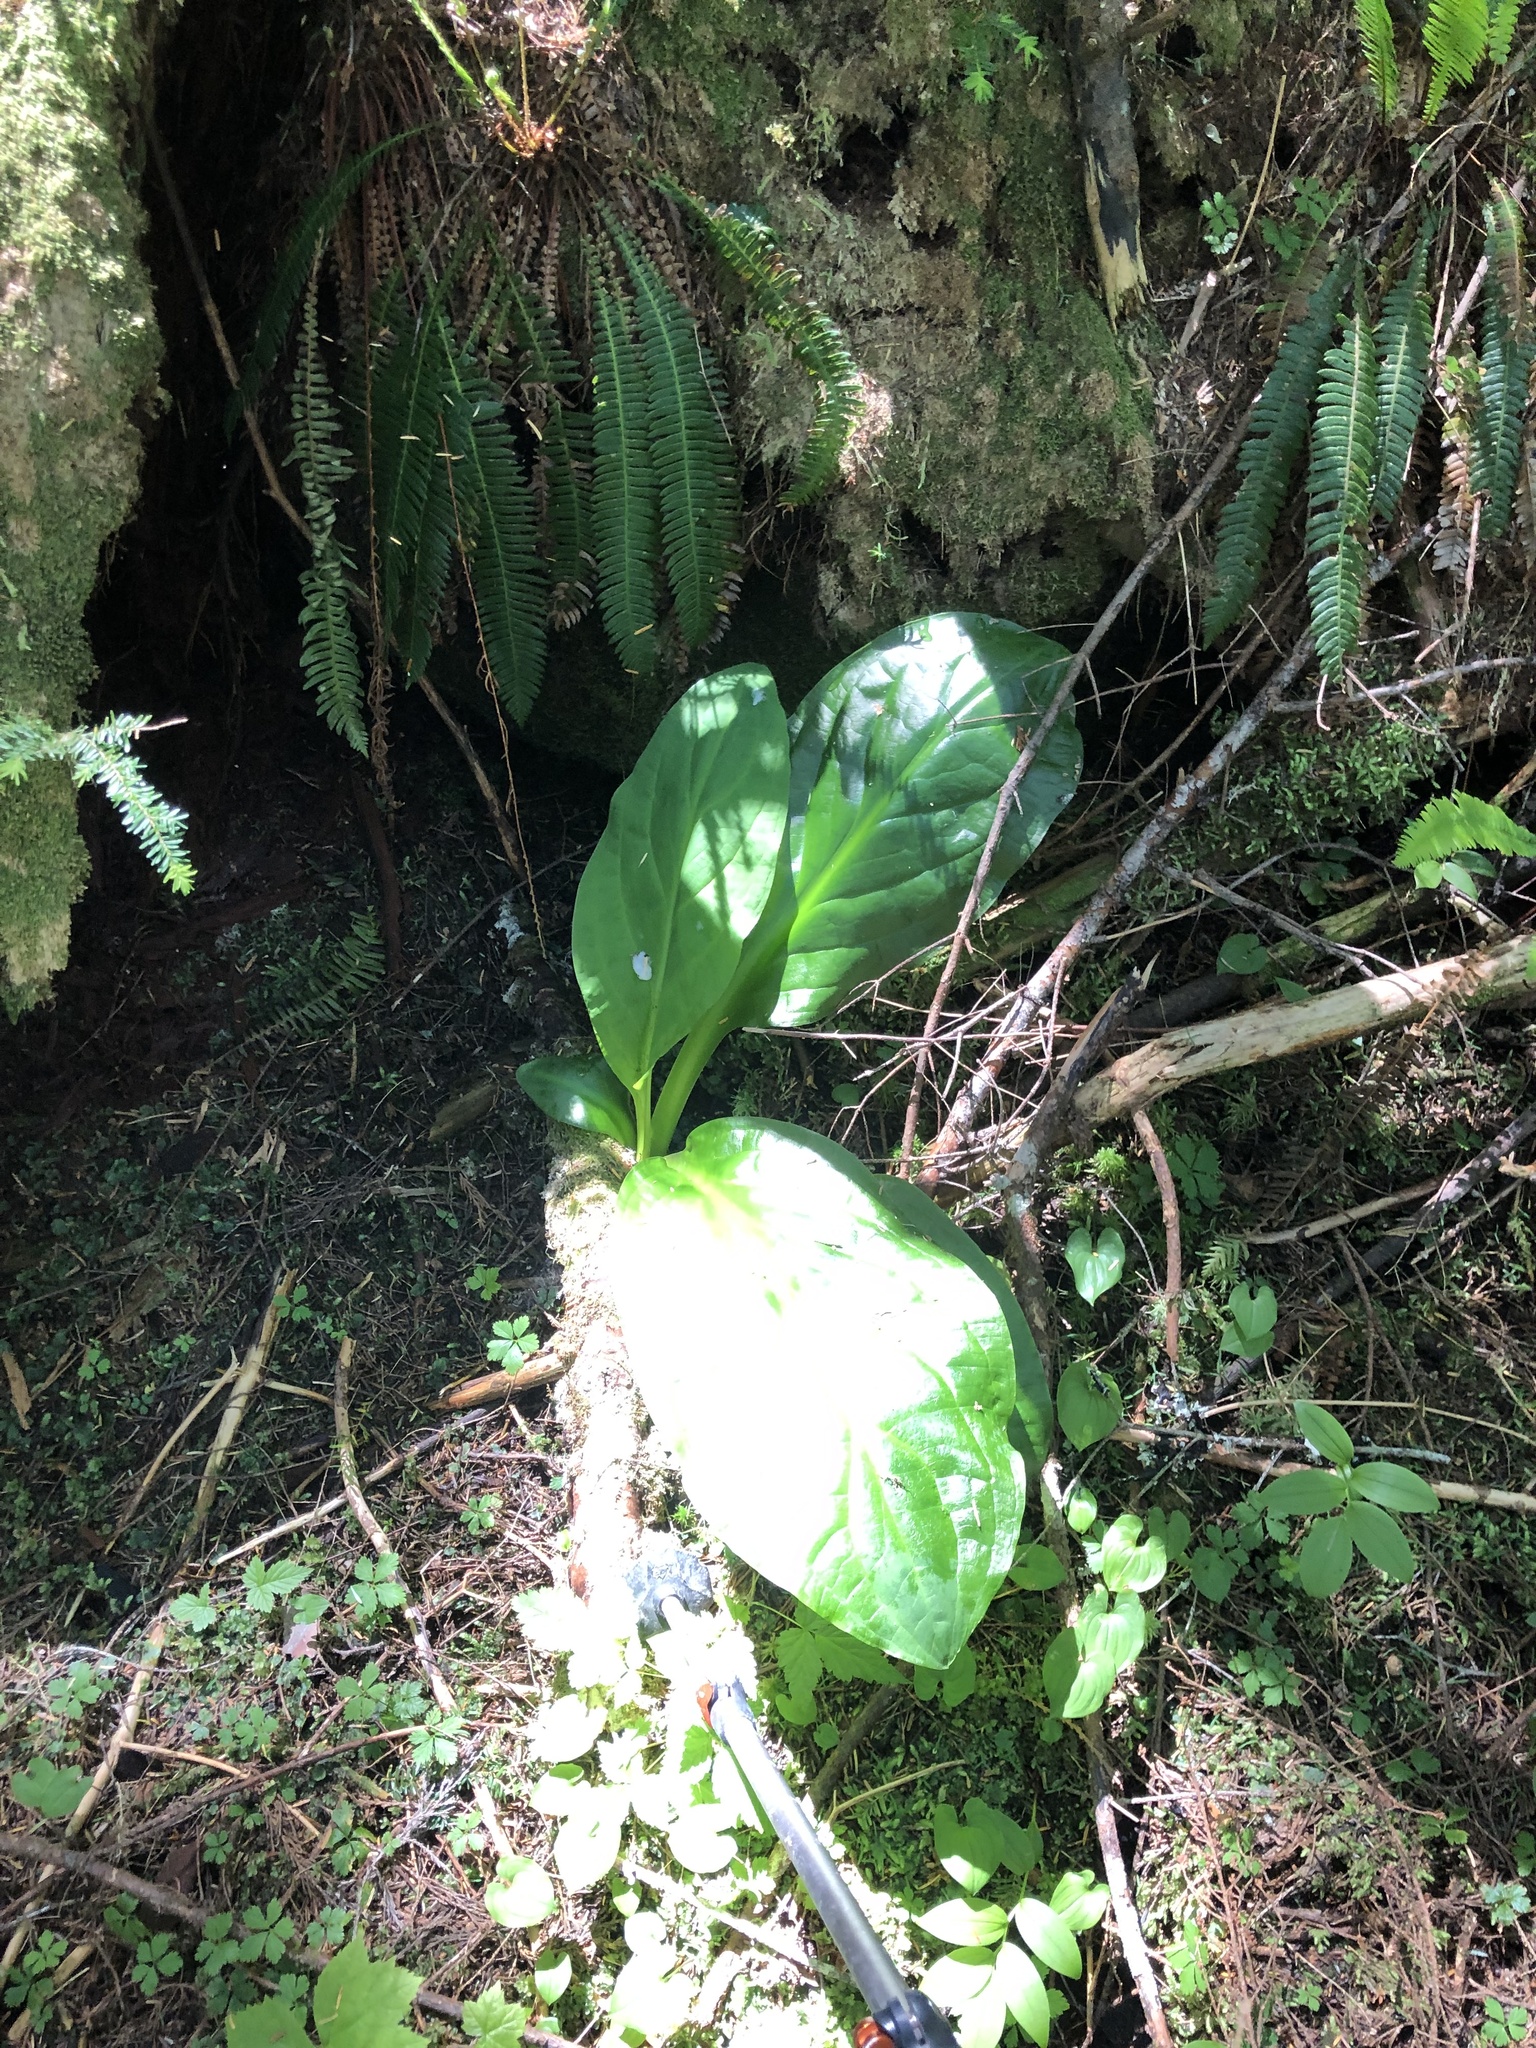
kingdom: Plantae
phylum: Tracheophyta
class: Liliopsida
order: Alismatales
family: Araceae
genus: Lysichiton
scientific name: Lysichiton americanus
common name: American skunk cabbage
